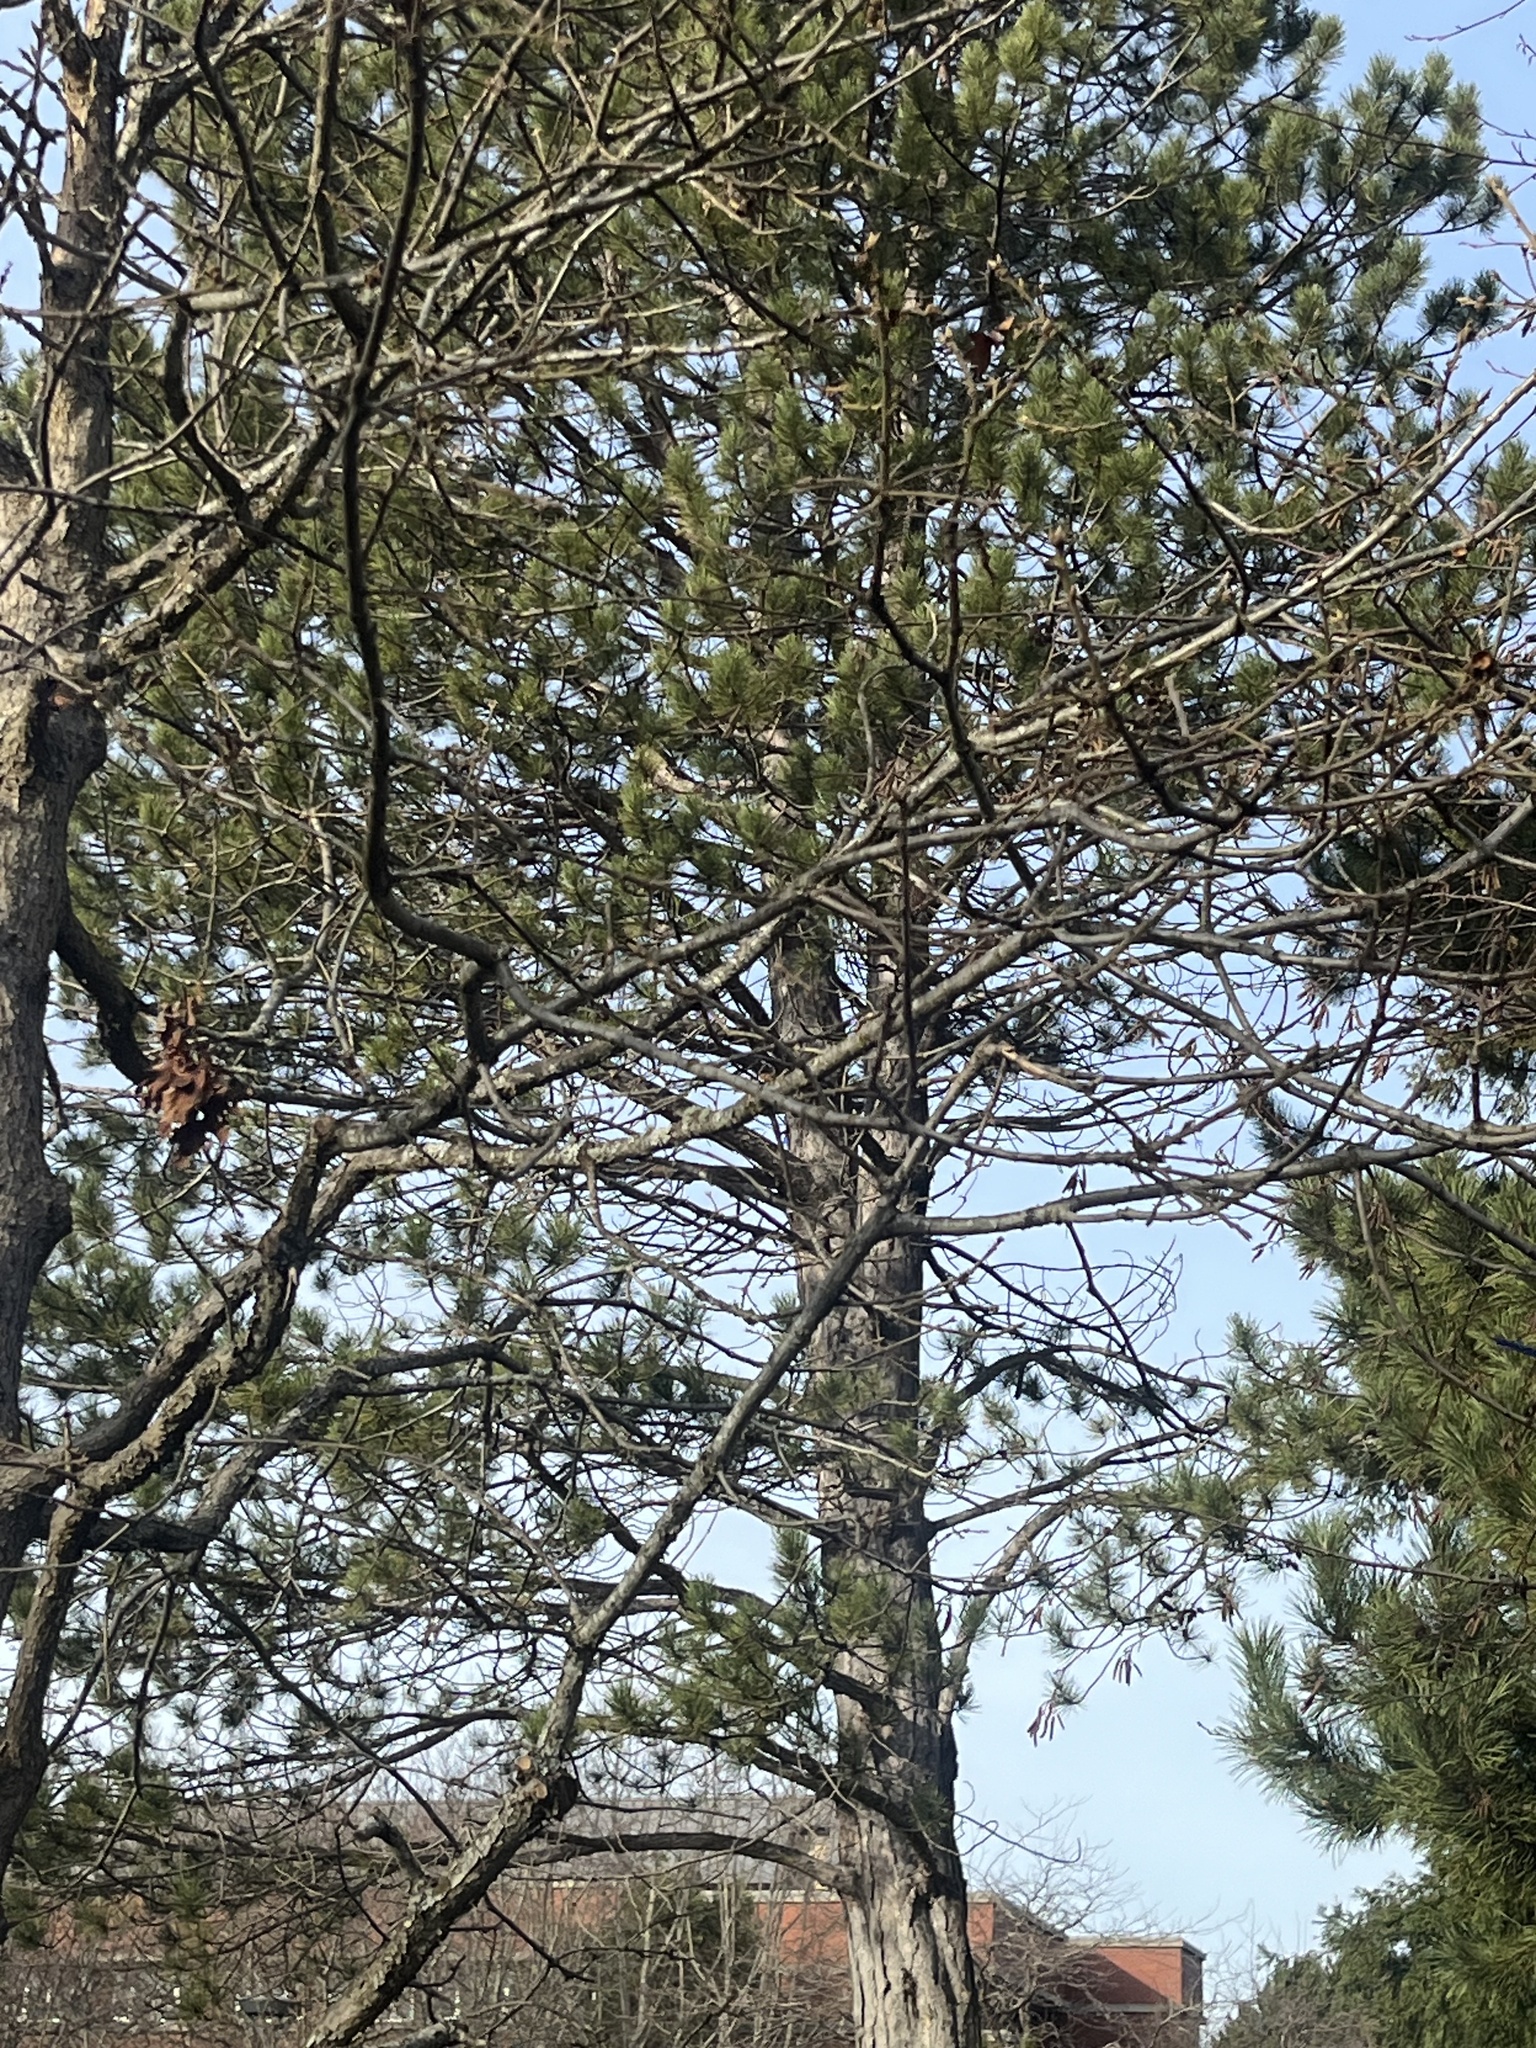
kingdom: Animalia
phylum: Chordata
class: Aves
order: Passeriformes
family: Corvidae
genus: Cyanocitta
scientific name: Cyanocitta stelleri
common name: Steller's jay
